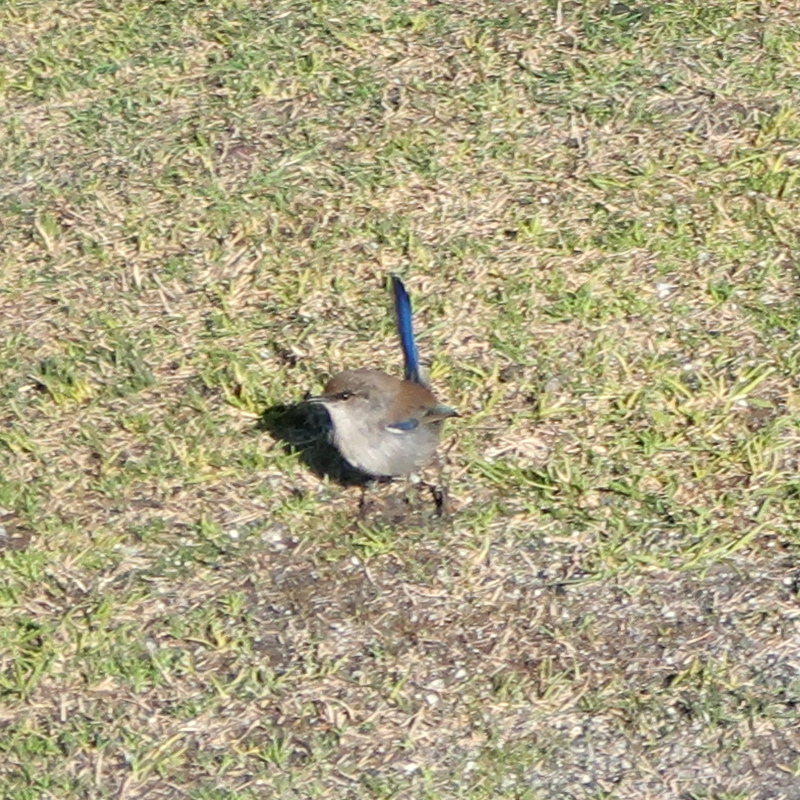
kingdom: Animalia
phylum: Chordata
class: Aves
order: Passeriformes
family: Maluridae
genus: Malurus
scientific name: Malurus cyaneus
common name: Superb fairywren
